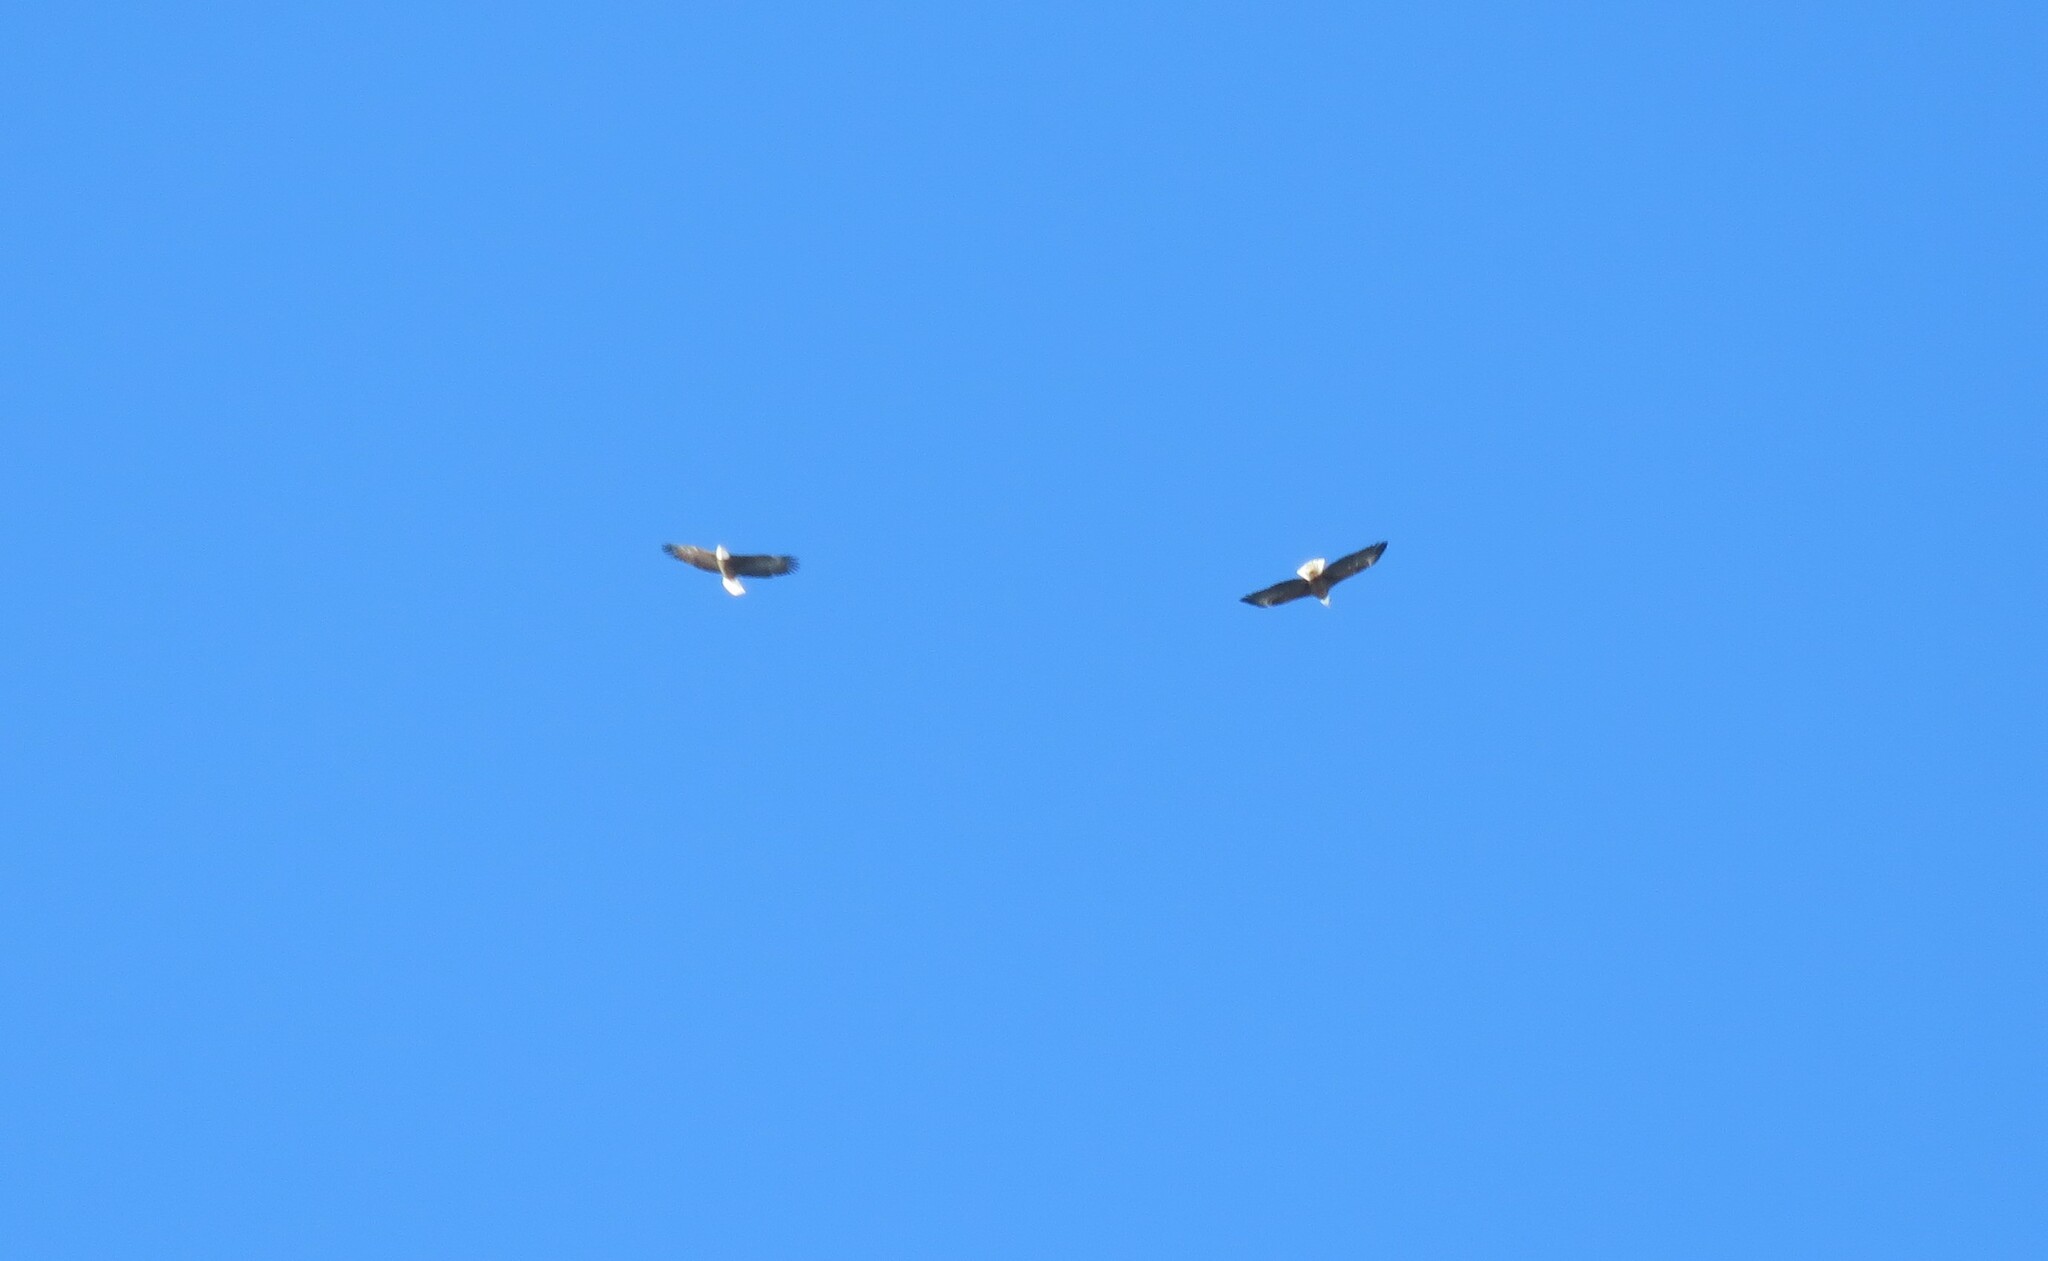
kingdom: Animalia
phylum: Chordata
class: Aves
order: Accipitriformes
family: Accipitridae
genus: Haliaeetus
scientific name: Haliaeetus leucocephalus
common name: Bald eagle
